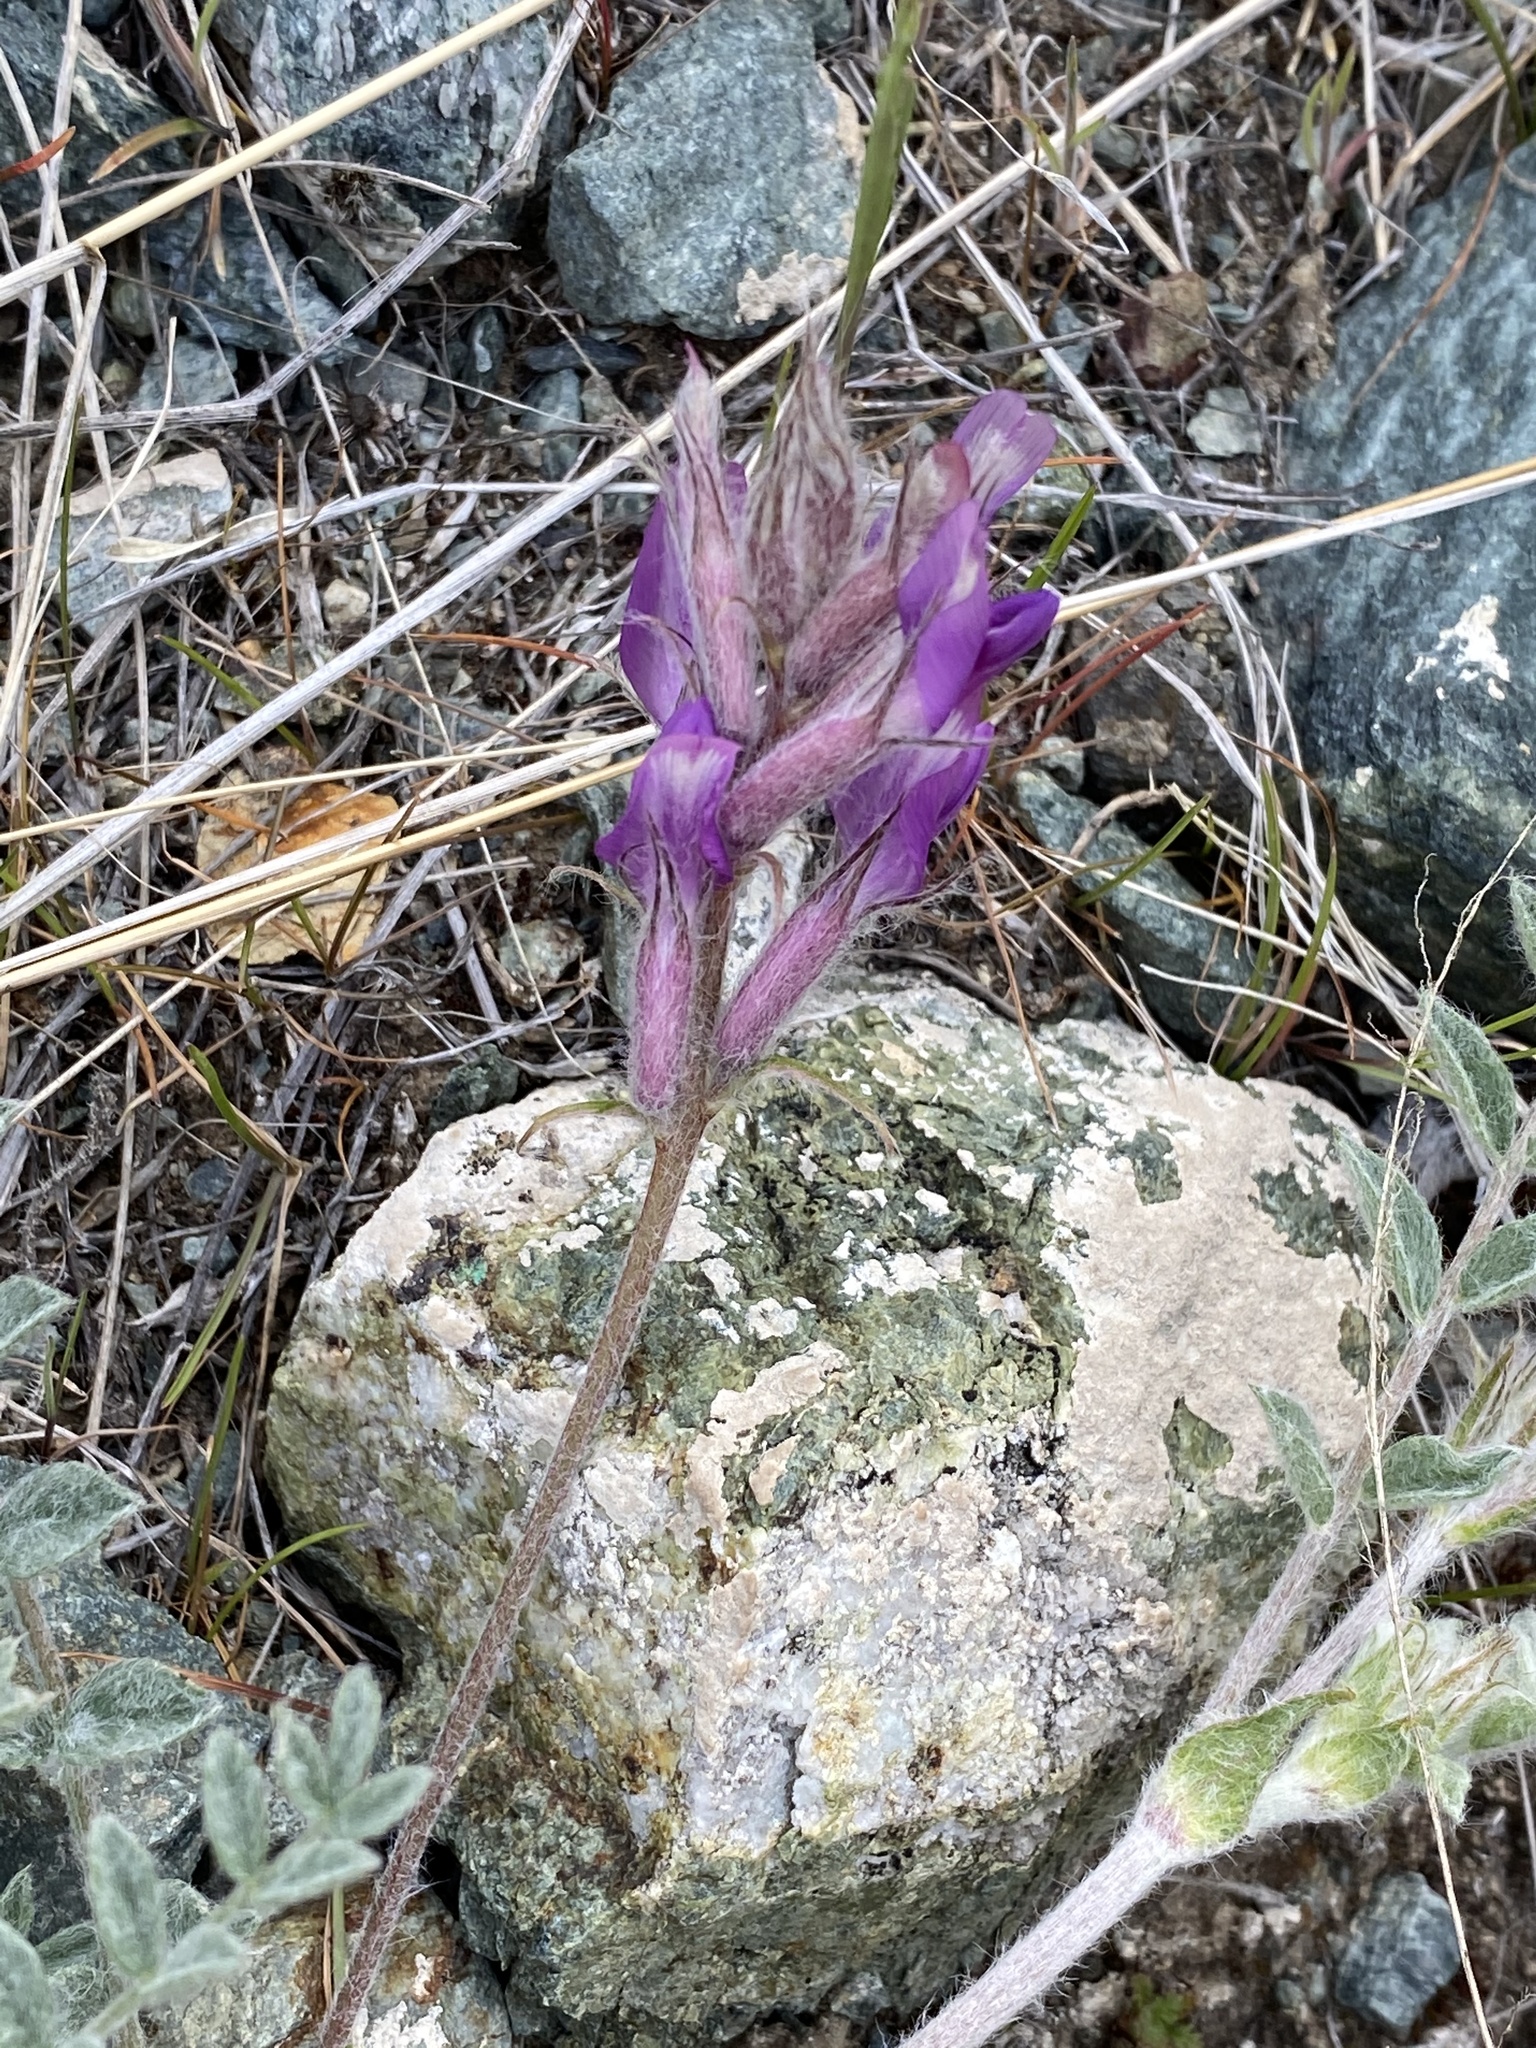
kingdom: Plantae
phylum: Tracheophyta
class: Magnoliopsida
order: Fabales
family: Fabaceae
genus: Astragalus
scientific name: Astragalus inflexus
